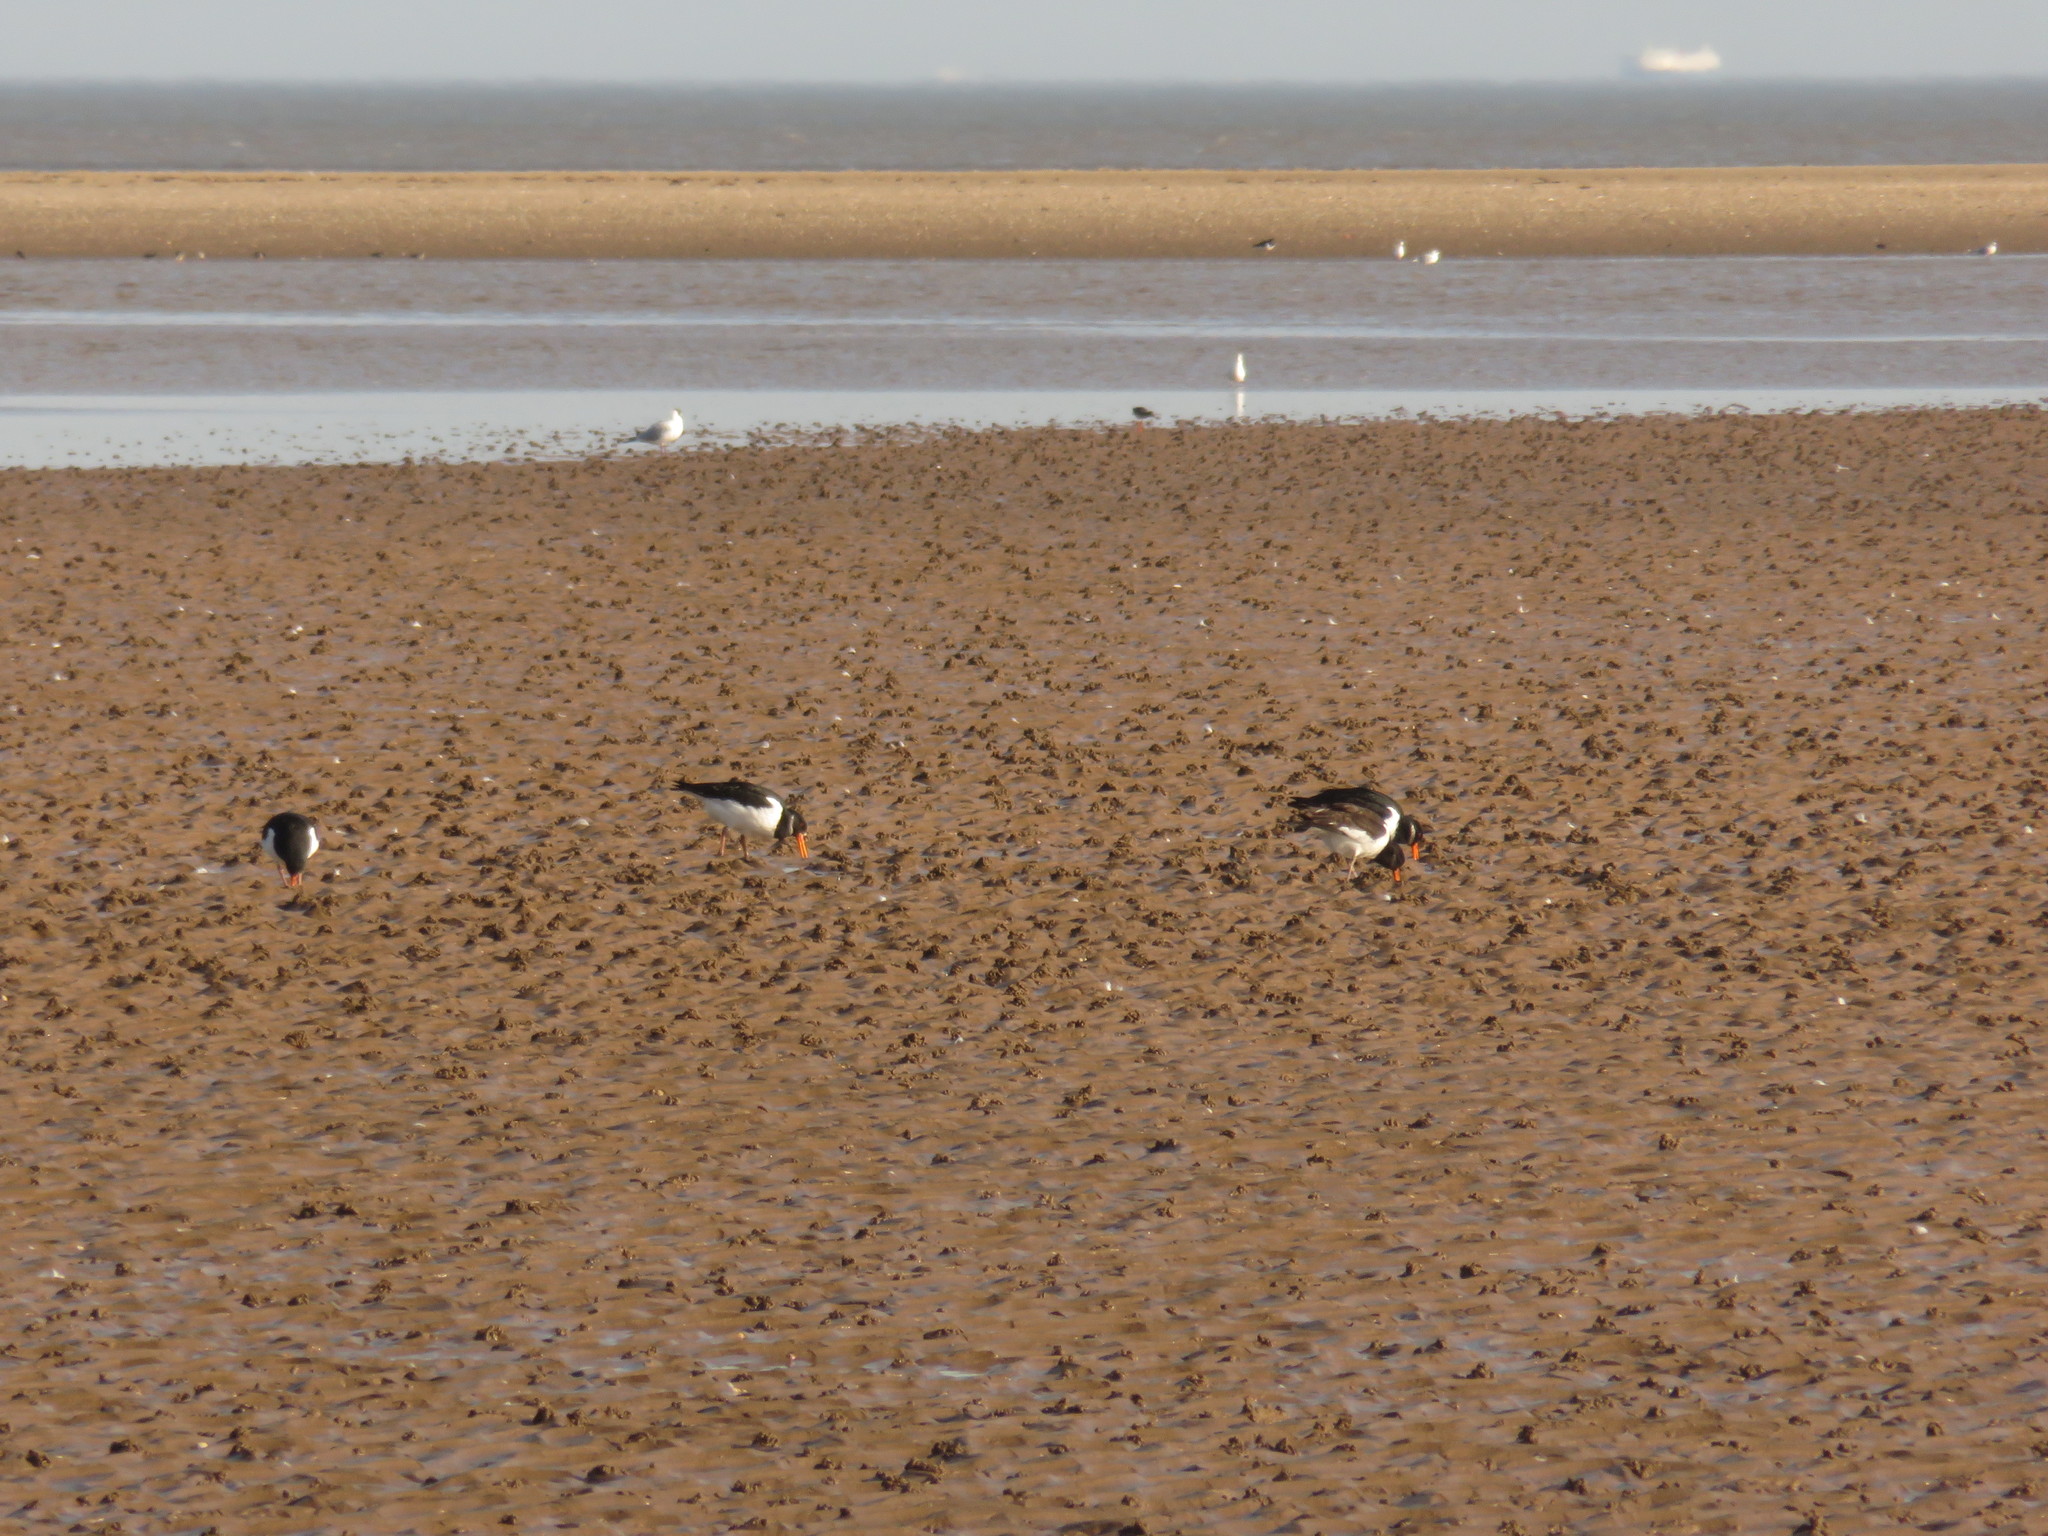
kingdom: Animalia
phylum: Chordata
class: Aves
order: Charadriiformes
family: Haematopodidae
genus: Haematopus
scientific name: Haematopus ostralegus
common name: Eurasian oystercatcher
